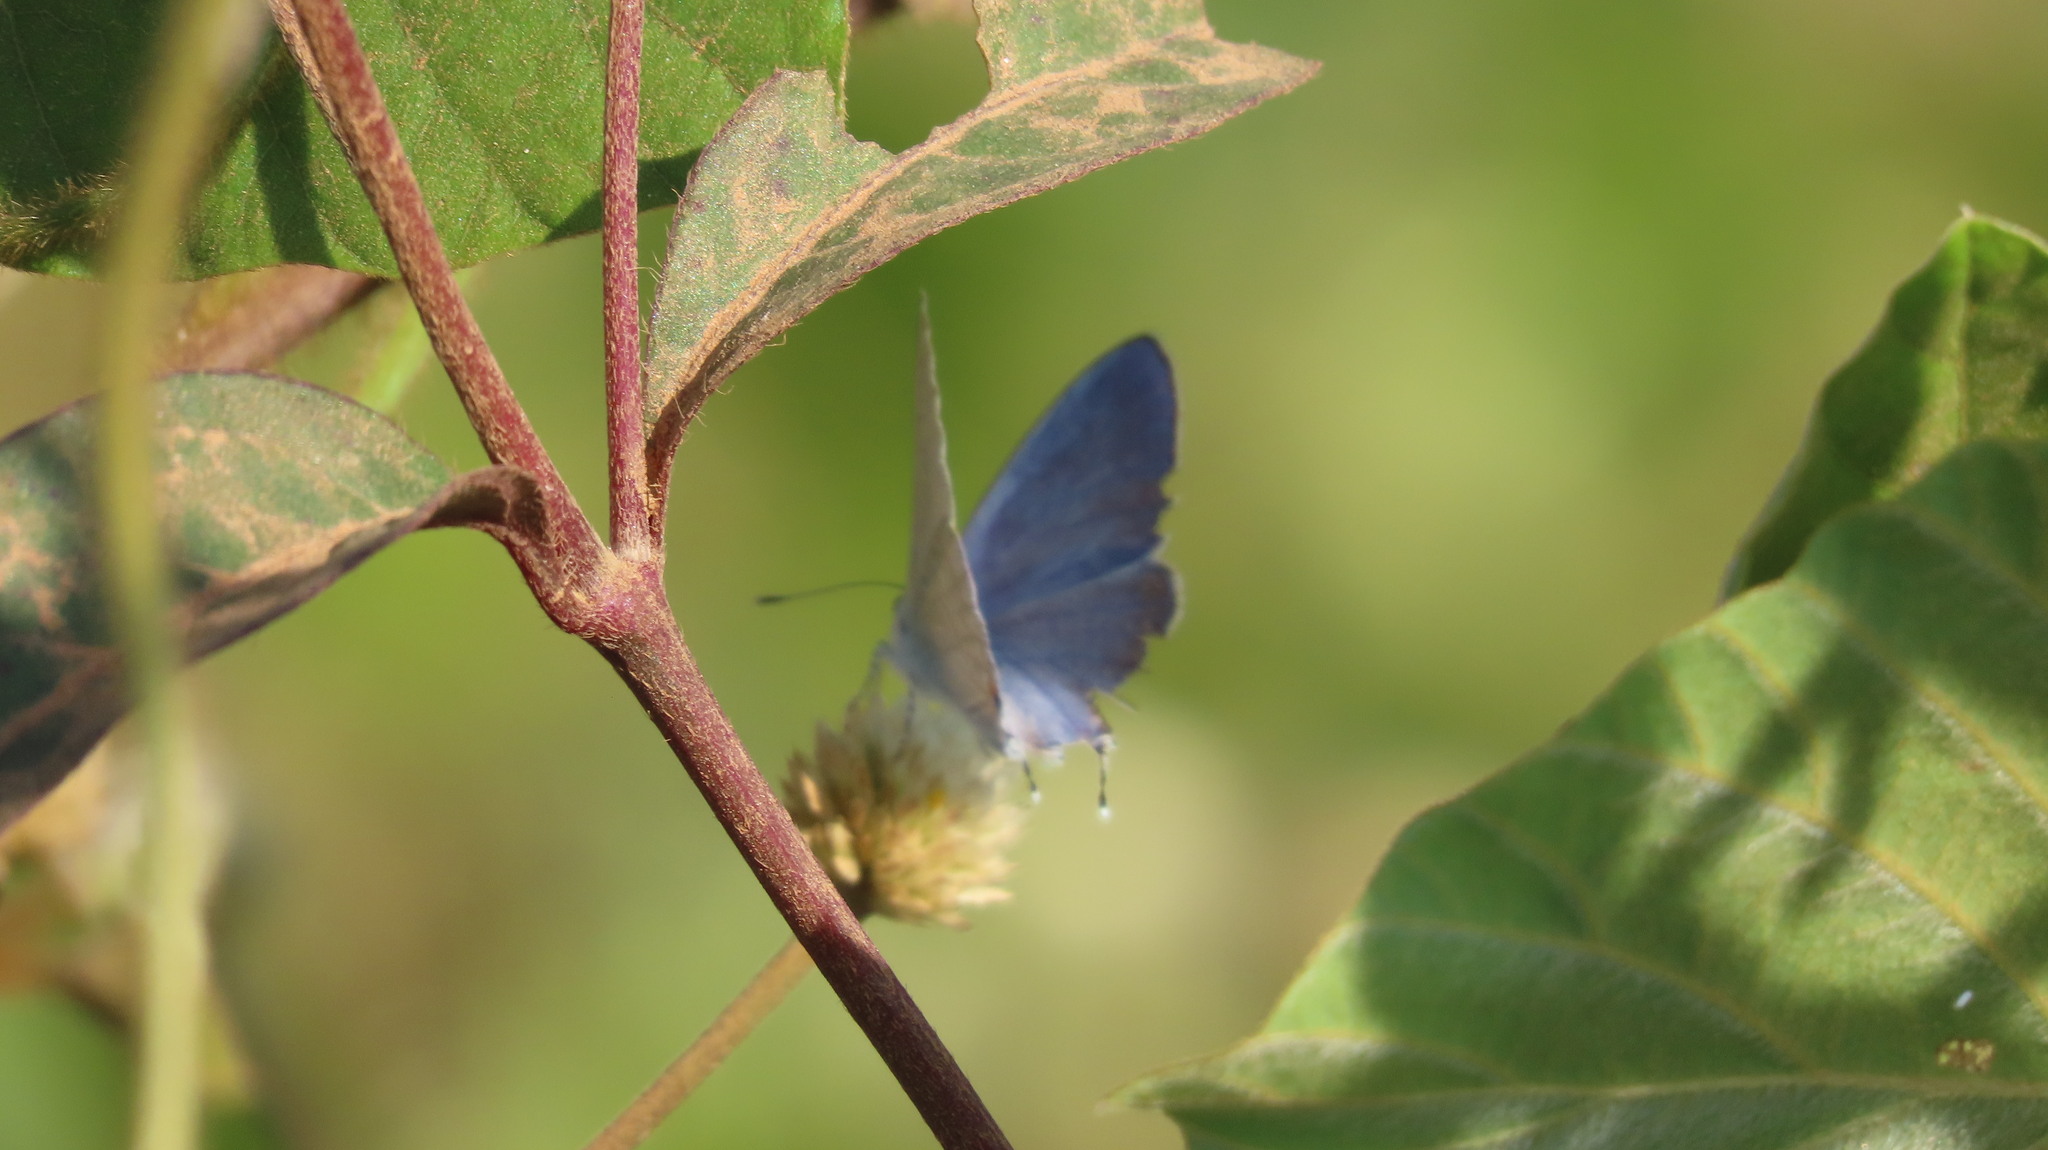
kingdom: Animalia
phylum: Arthropoda
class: Insecta
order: Lepidoptera
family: Lycaenidae
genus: Catochrysops
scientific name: Catochrysops strabo
